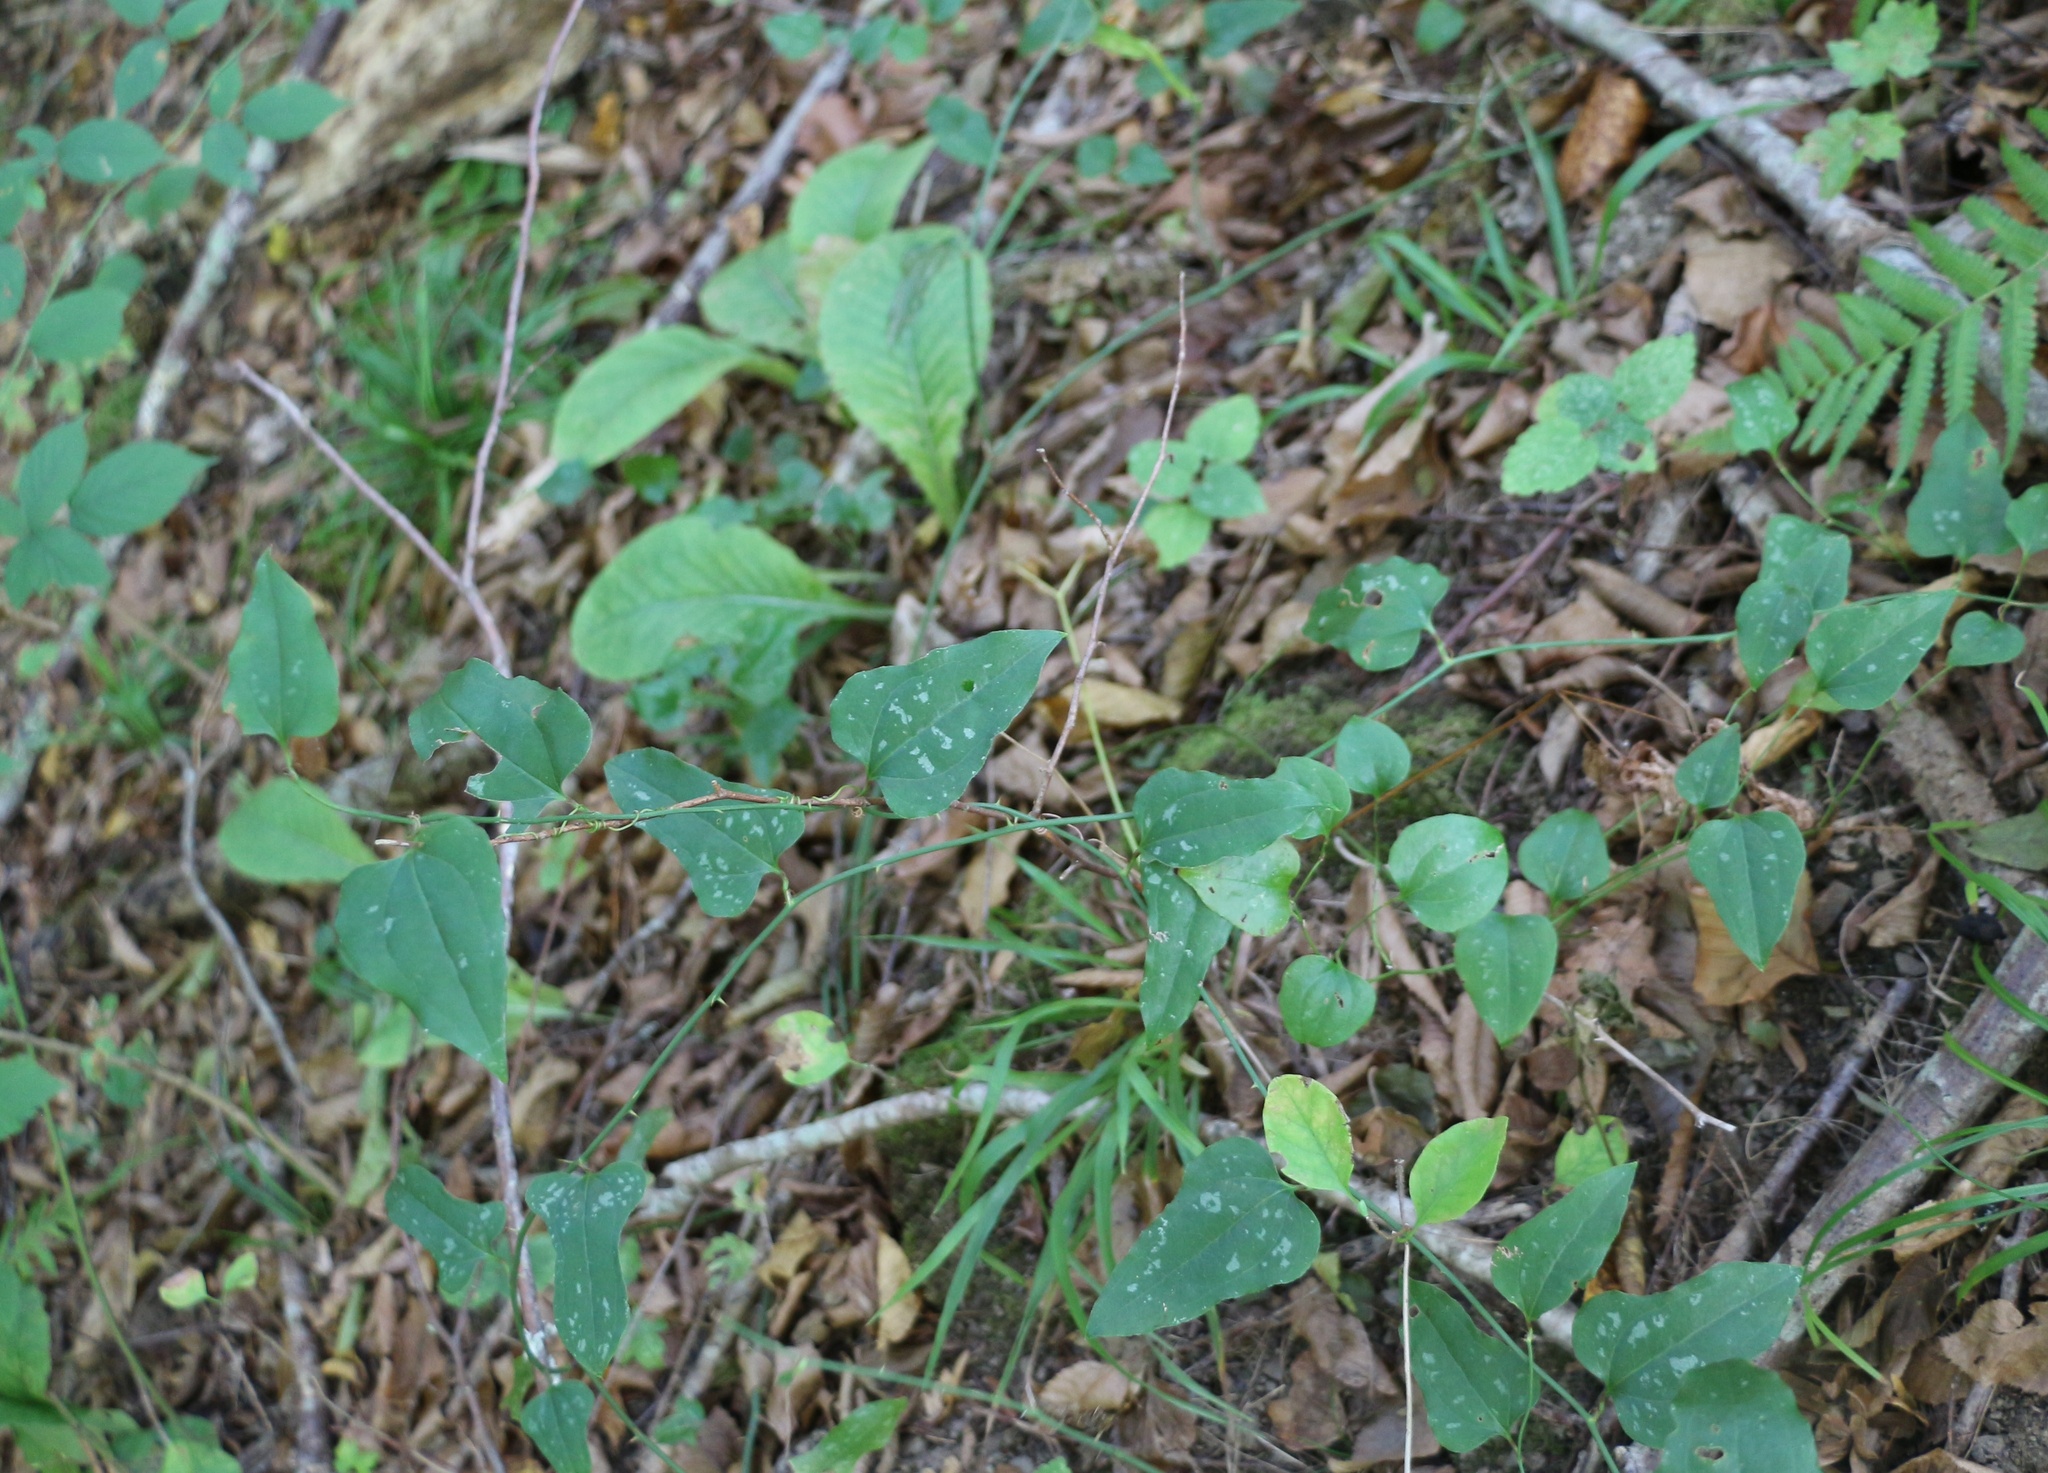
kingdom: Plantae
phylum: Tracheophyta
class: Liliopsida
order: Liliales
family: Smilacaceae
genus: Smilax
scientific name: Smilax excelsa
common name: Larger smilax
